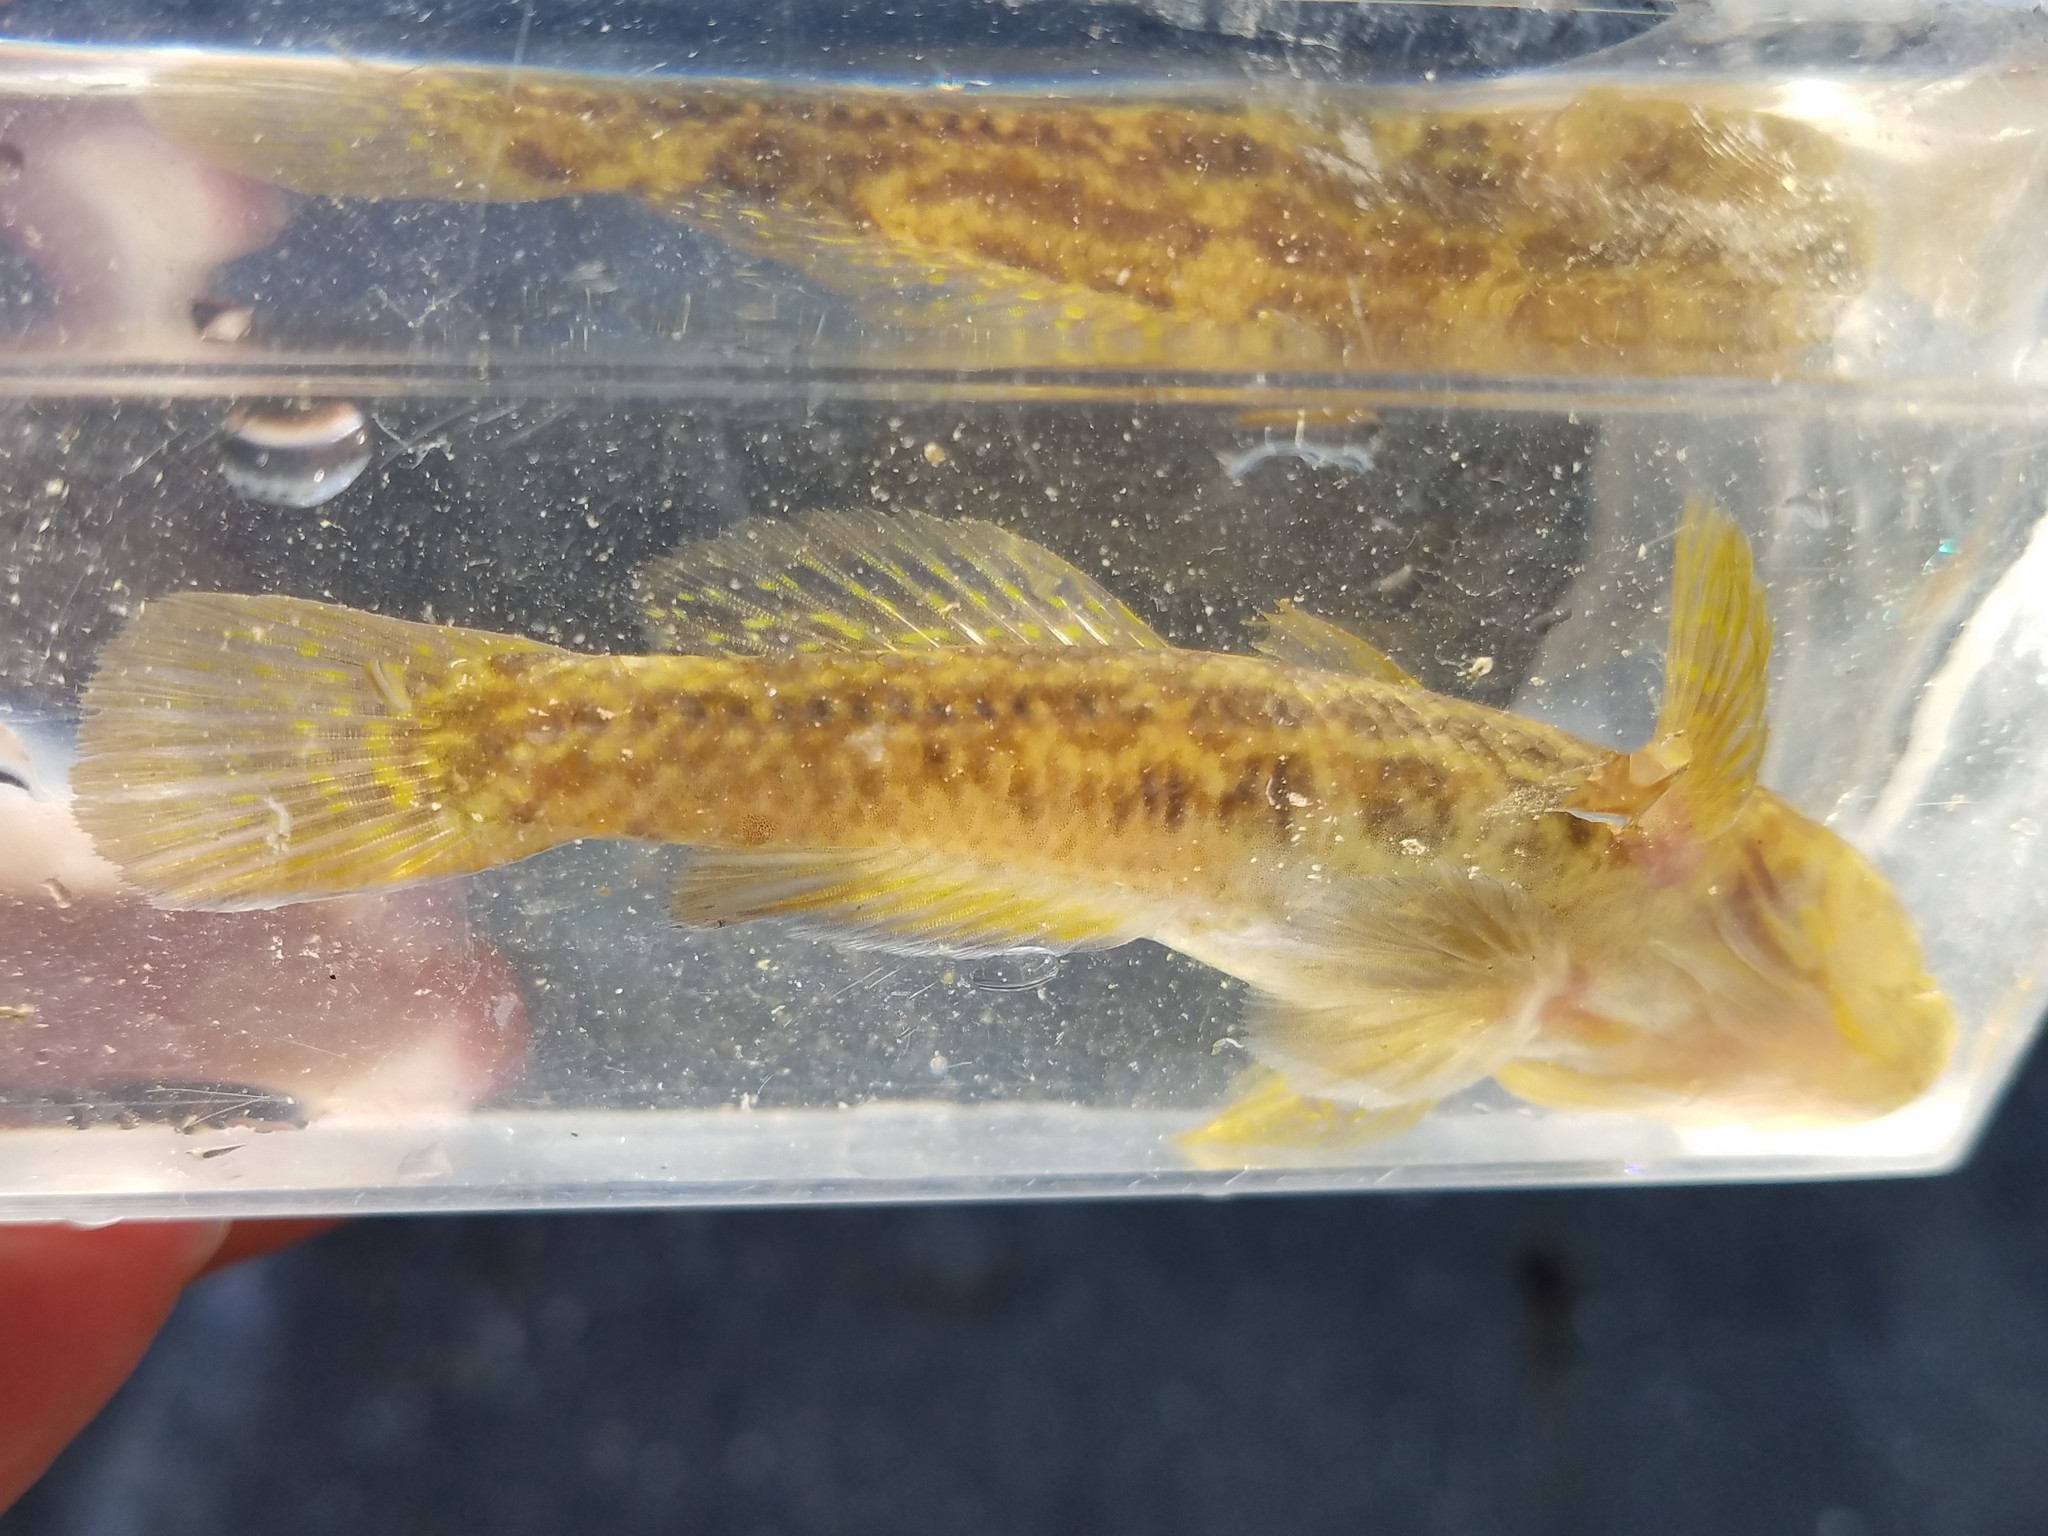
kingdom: Animalia
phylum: Chordata
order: Perciformes
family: Gobiidae
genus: Bathygobius
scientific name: Bathygobius soporator
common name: Frillfin goby
